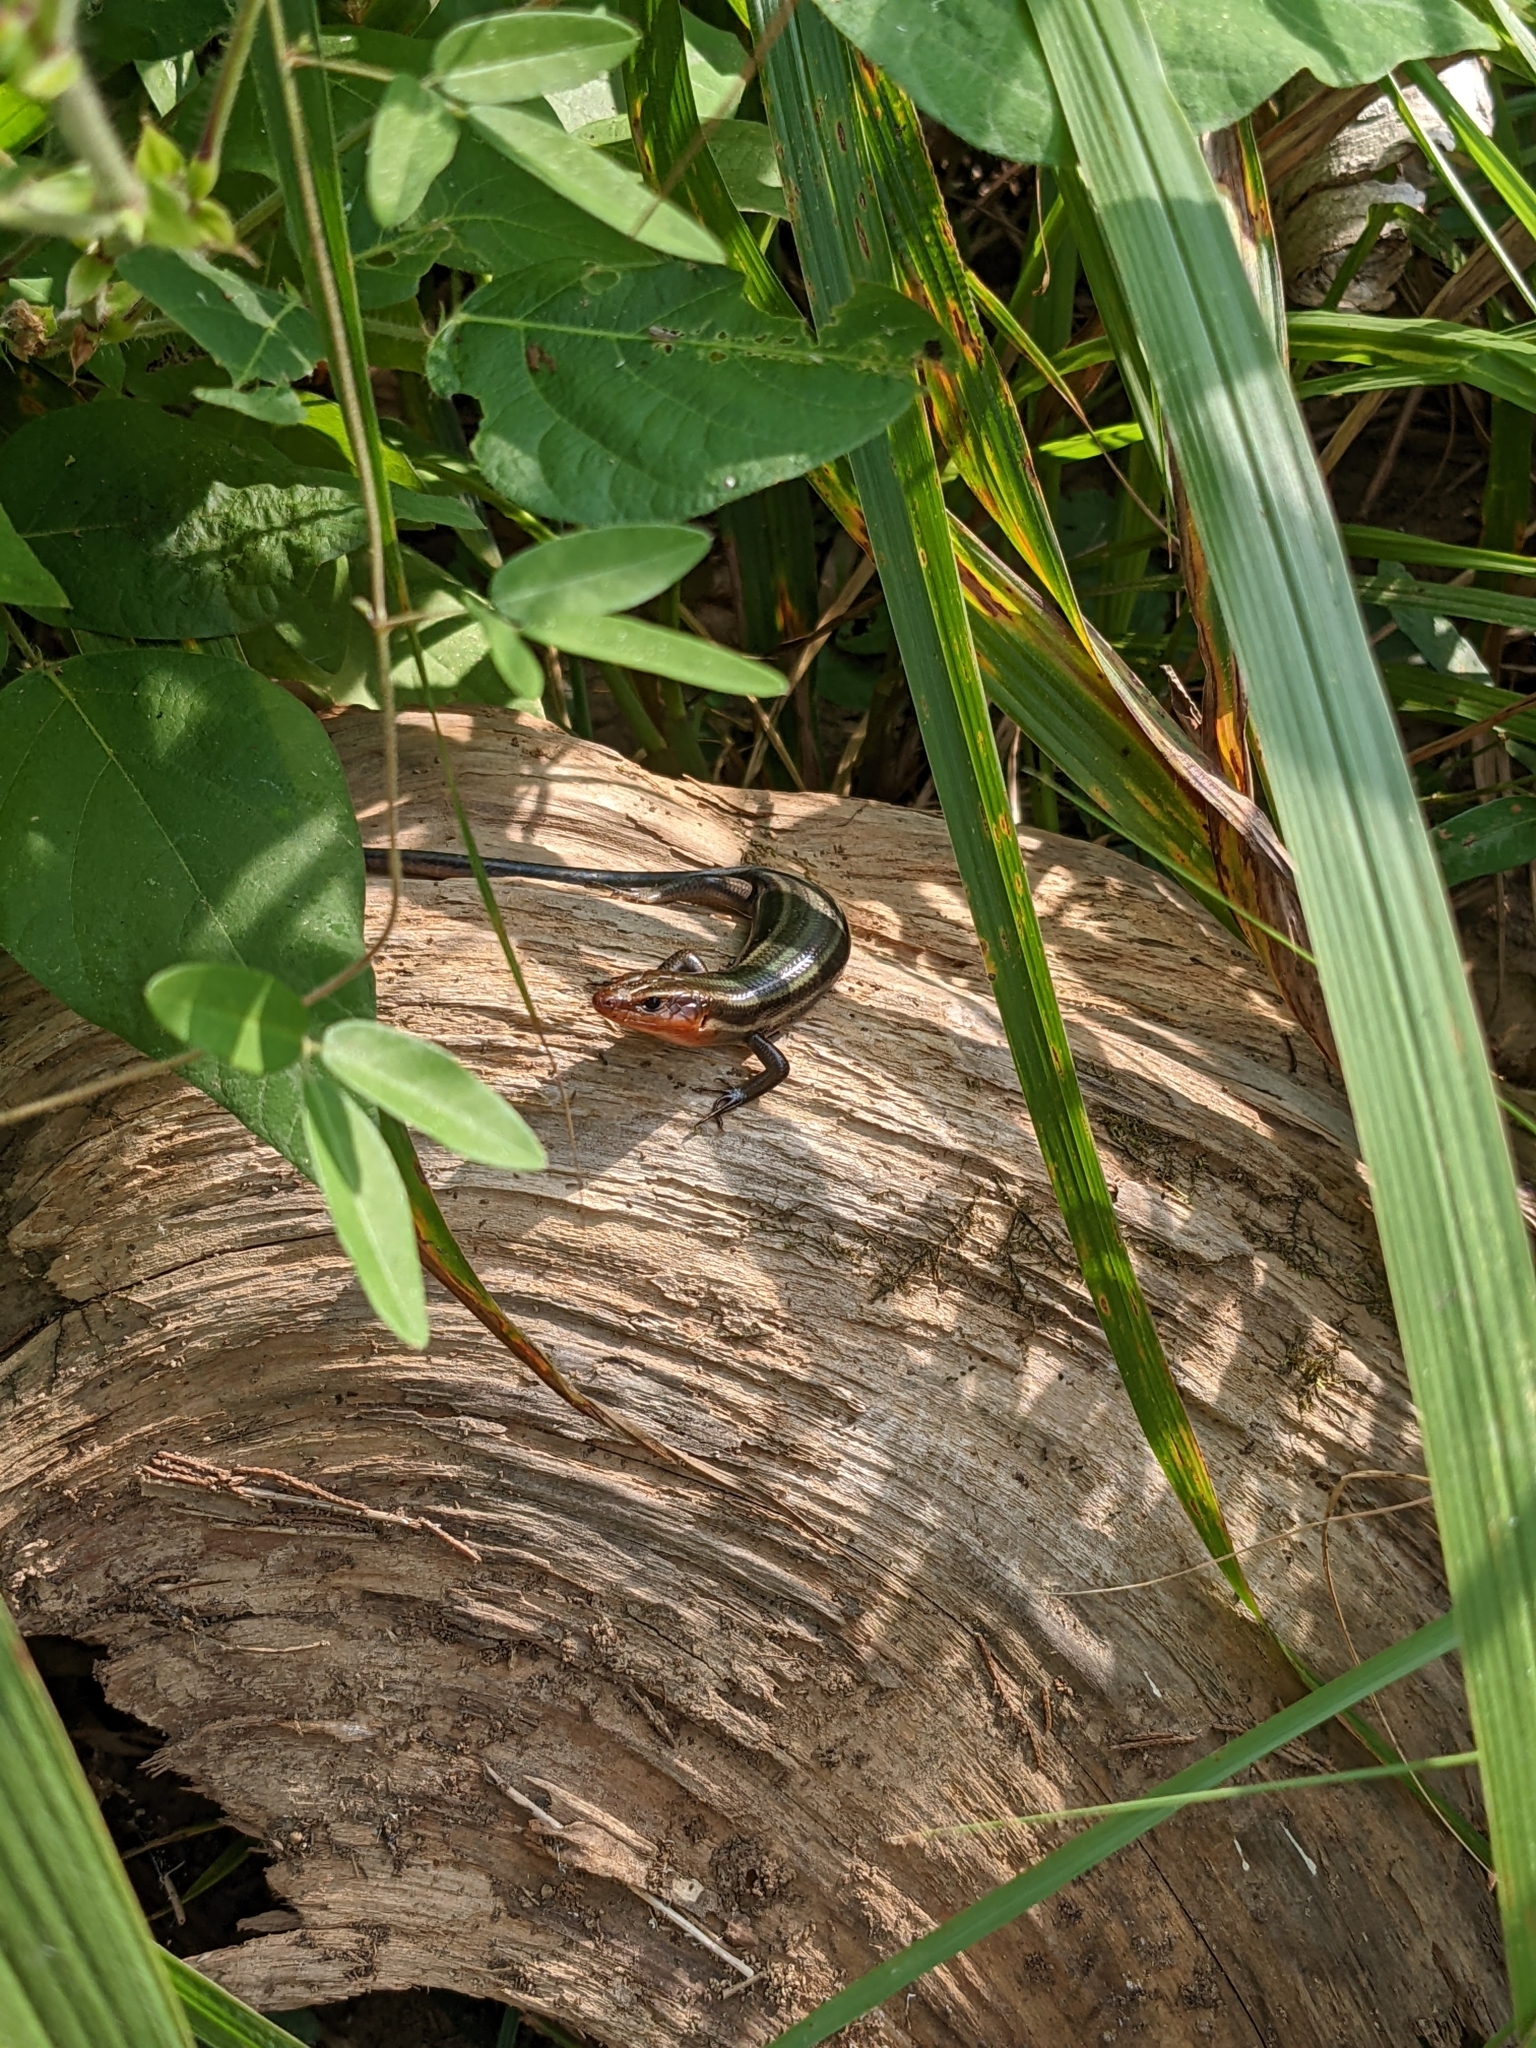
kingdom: Animalia
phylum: Chordata
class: Squamata
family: Scincidae
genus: Plestiodon
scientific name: Plestiodon fasciatus
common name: Five-lined skink
